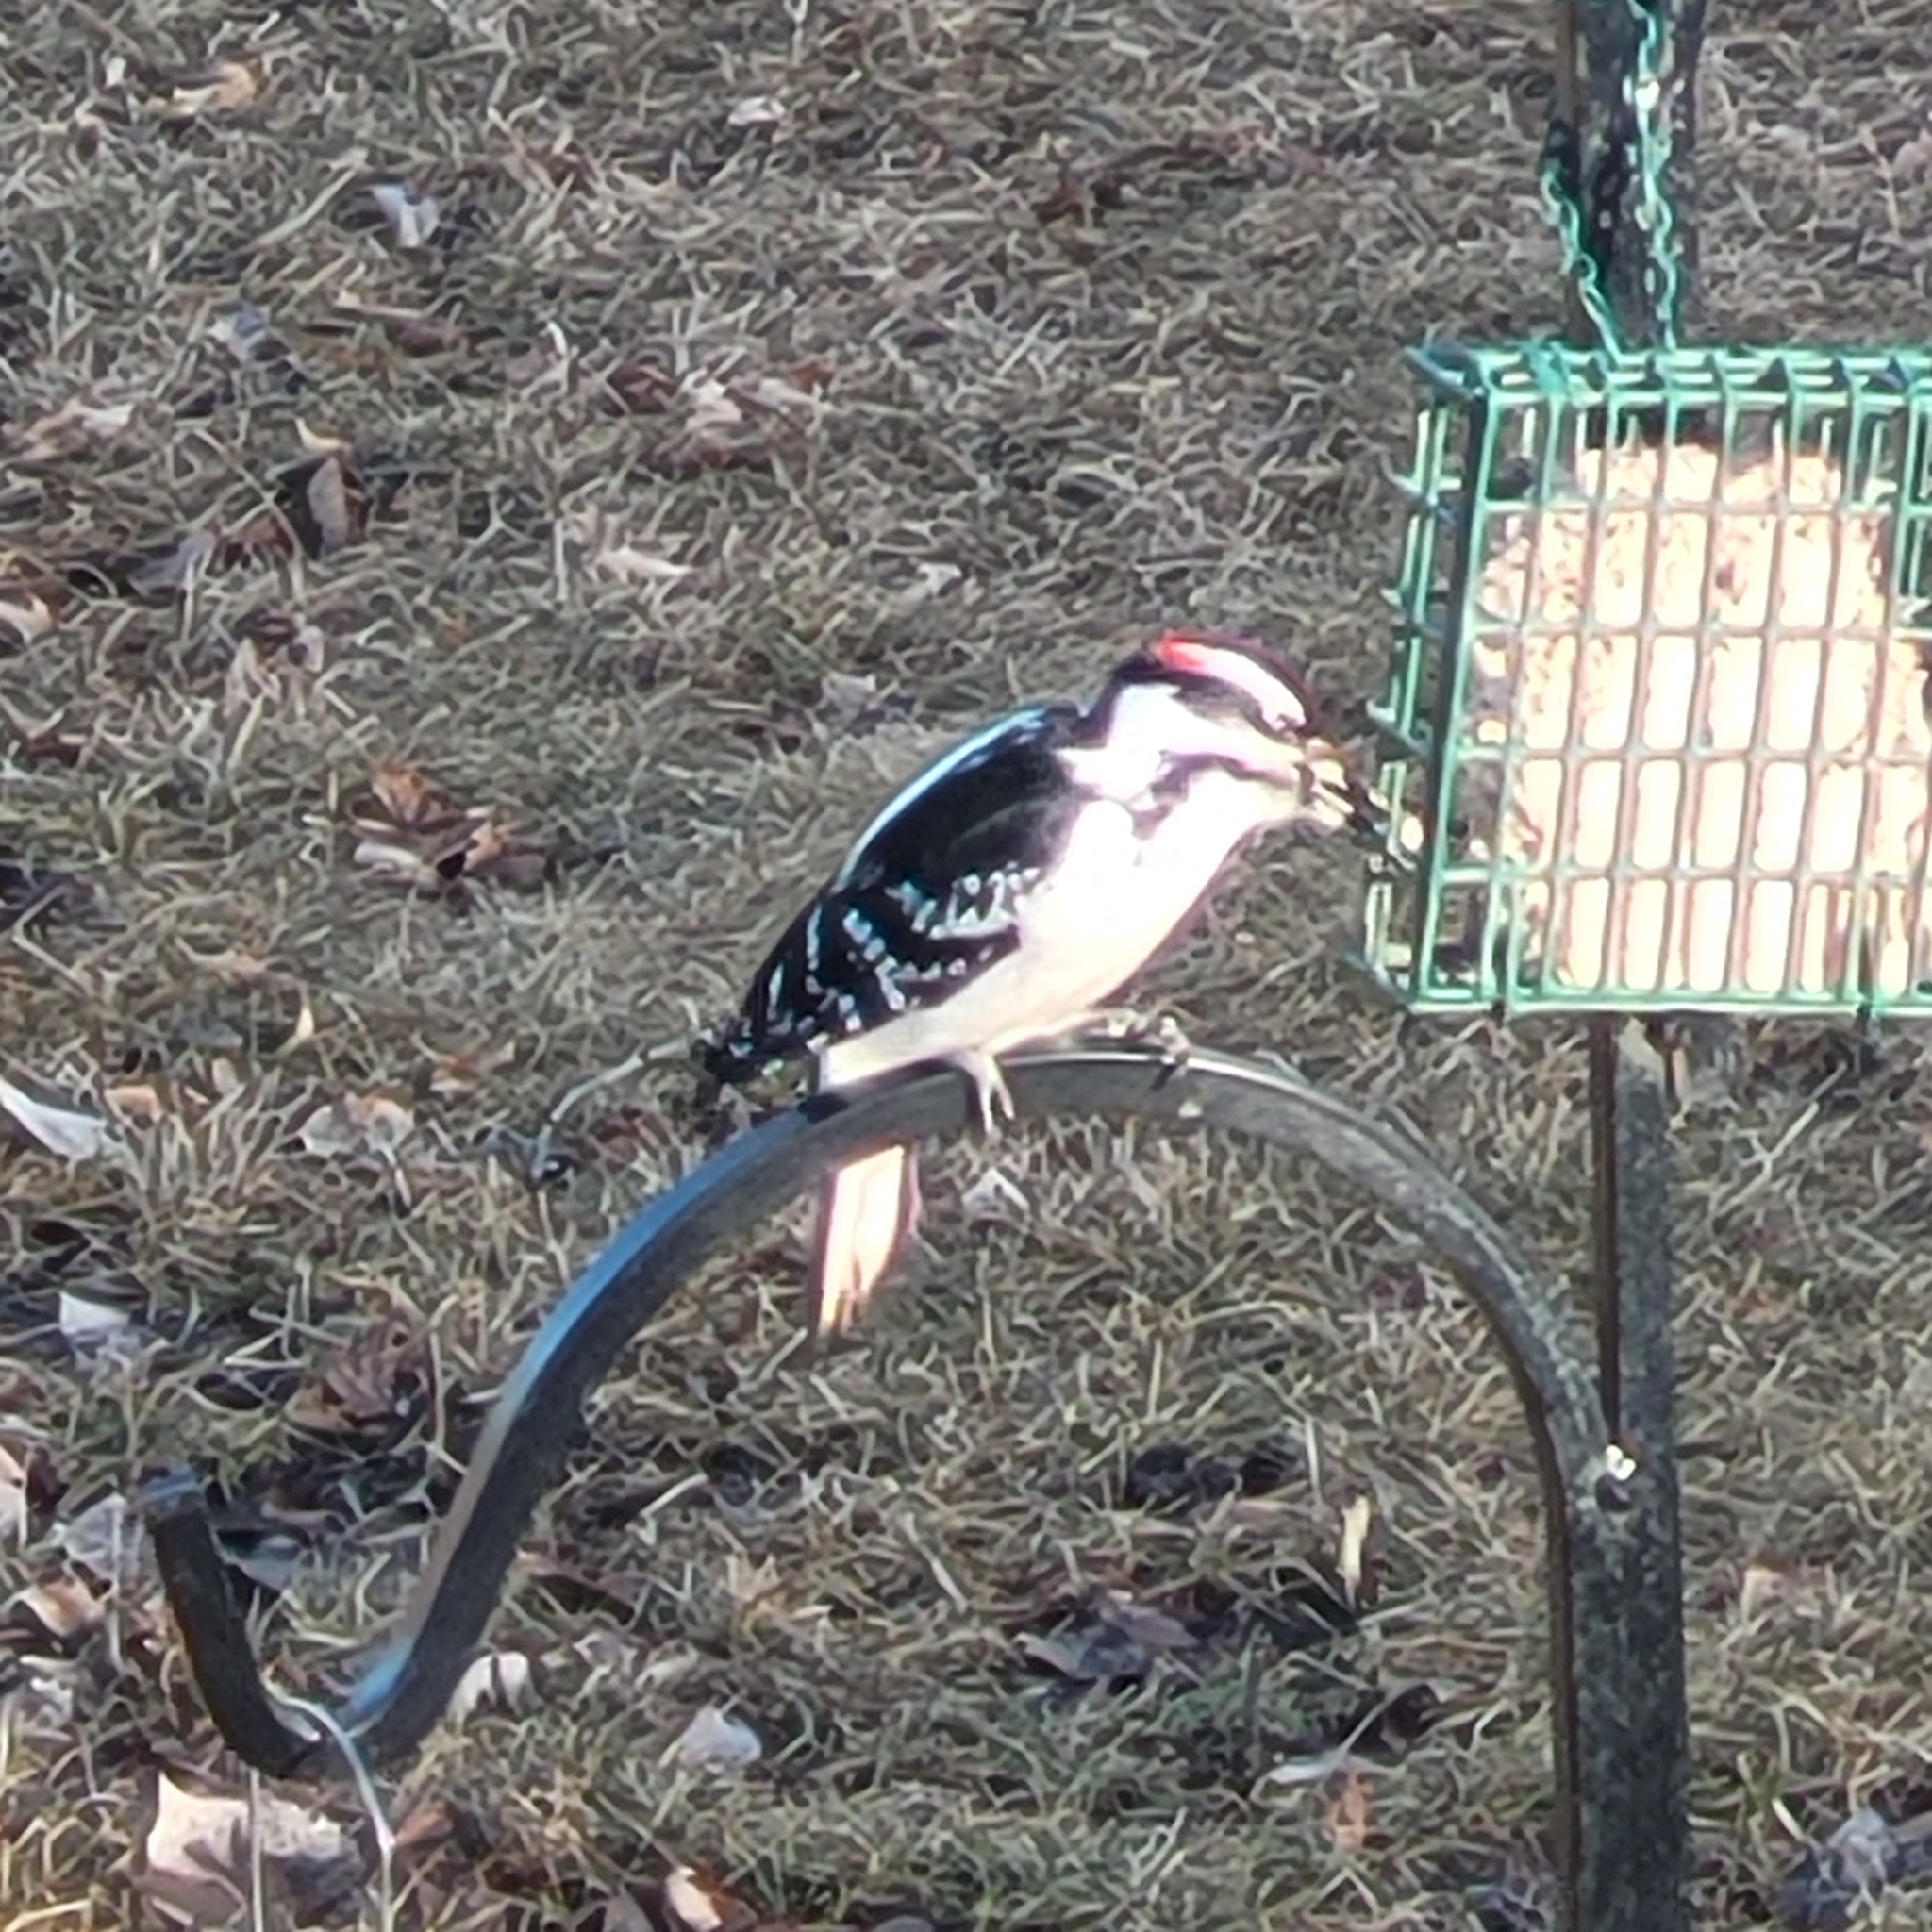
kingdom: Animalia
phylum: Chordata
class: Aves
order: Piciformes
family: Picidae
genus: Leuconotopicus
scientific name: Leuconotopicus villosus
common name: Hairy woodpecker
